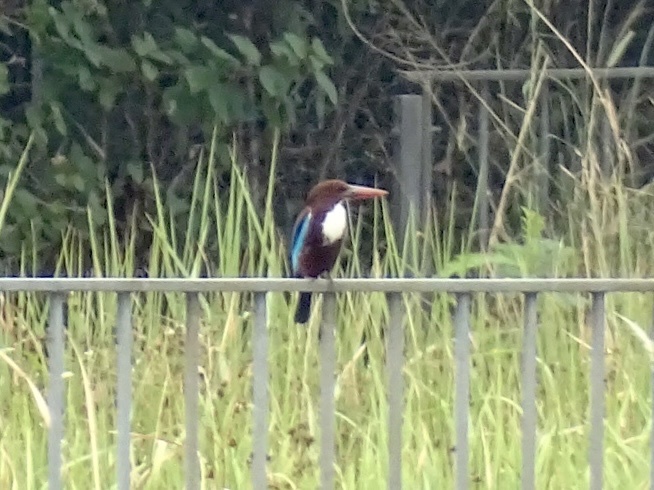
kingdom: Animalia
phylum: Chordata
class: Aves
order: Coraciiformes
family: Alcedinidae
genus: Halcyon
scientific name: Halcyon smyrnensis
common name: White-throated kingfisher
